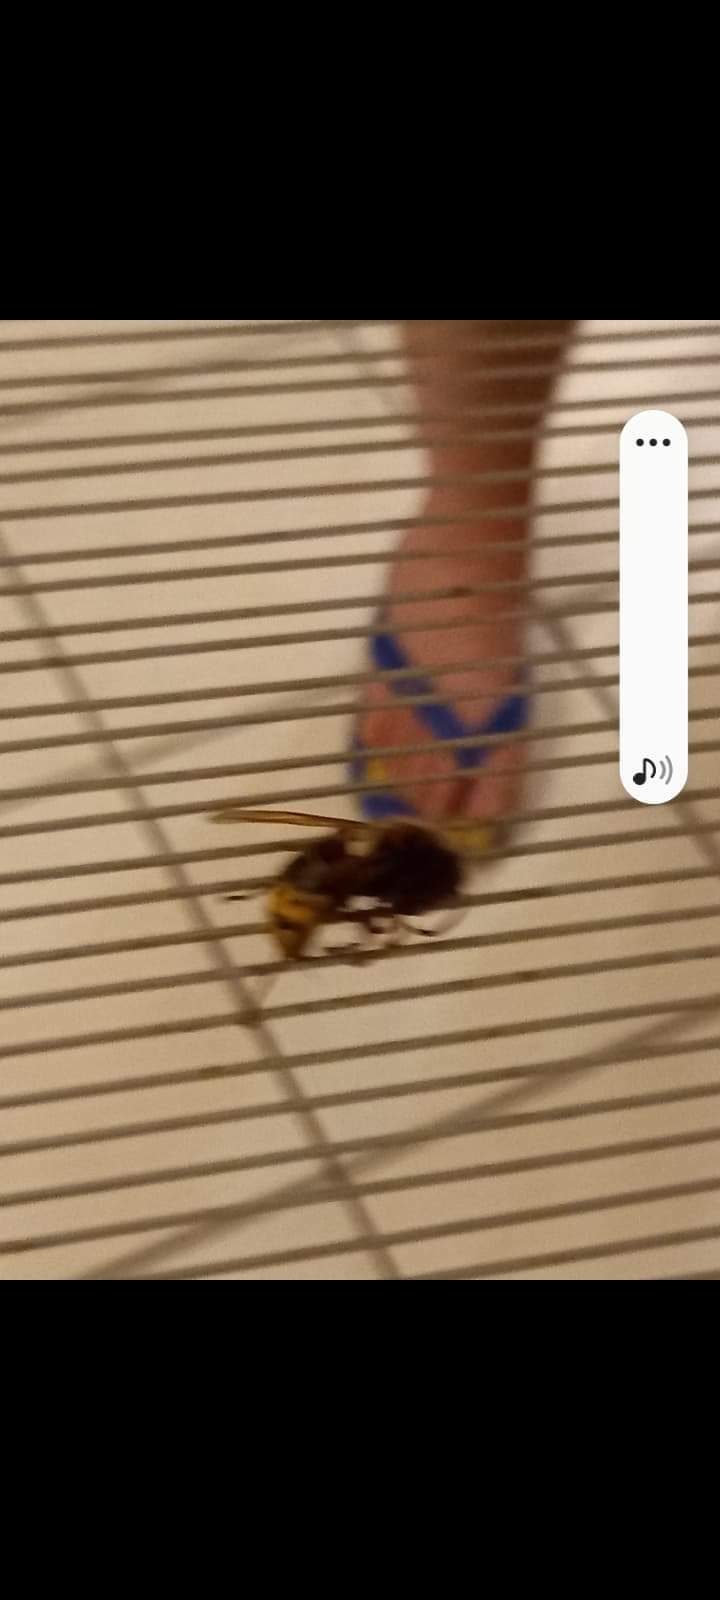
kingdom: Animalia
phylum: Arthropoda
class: Insecta
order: Hymenoptera
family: Vespidae
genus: Vespa
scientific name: Vespa crabro
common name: Hornet
